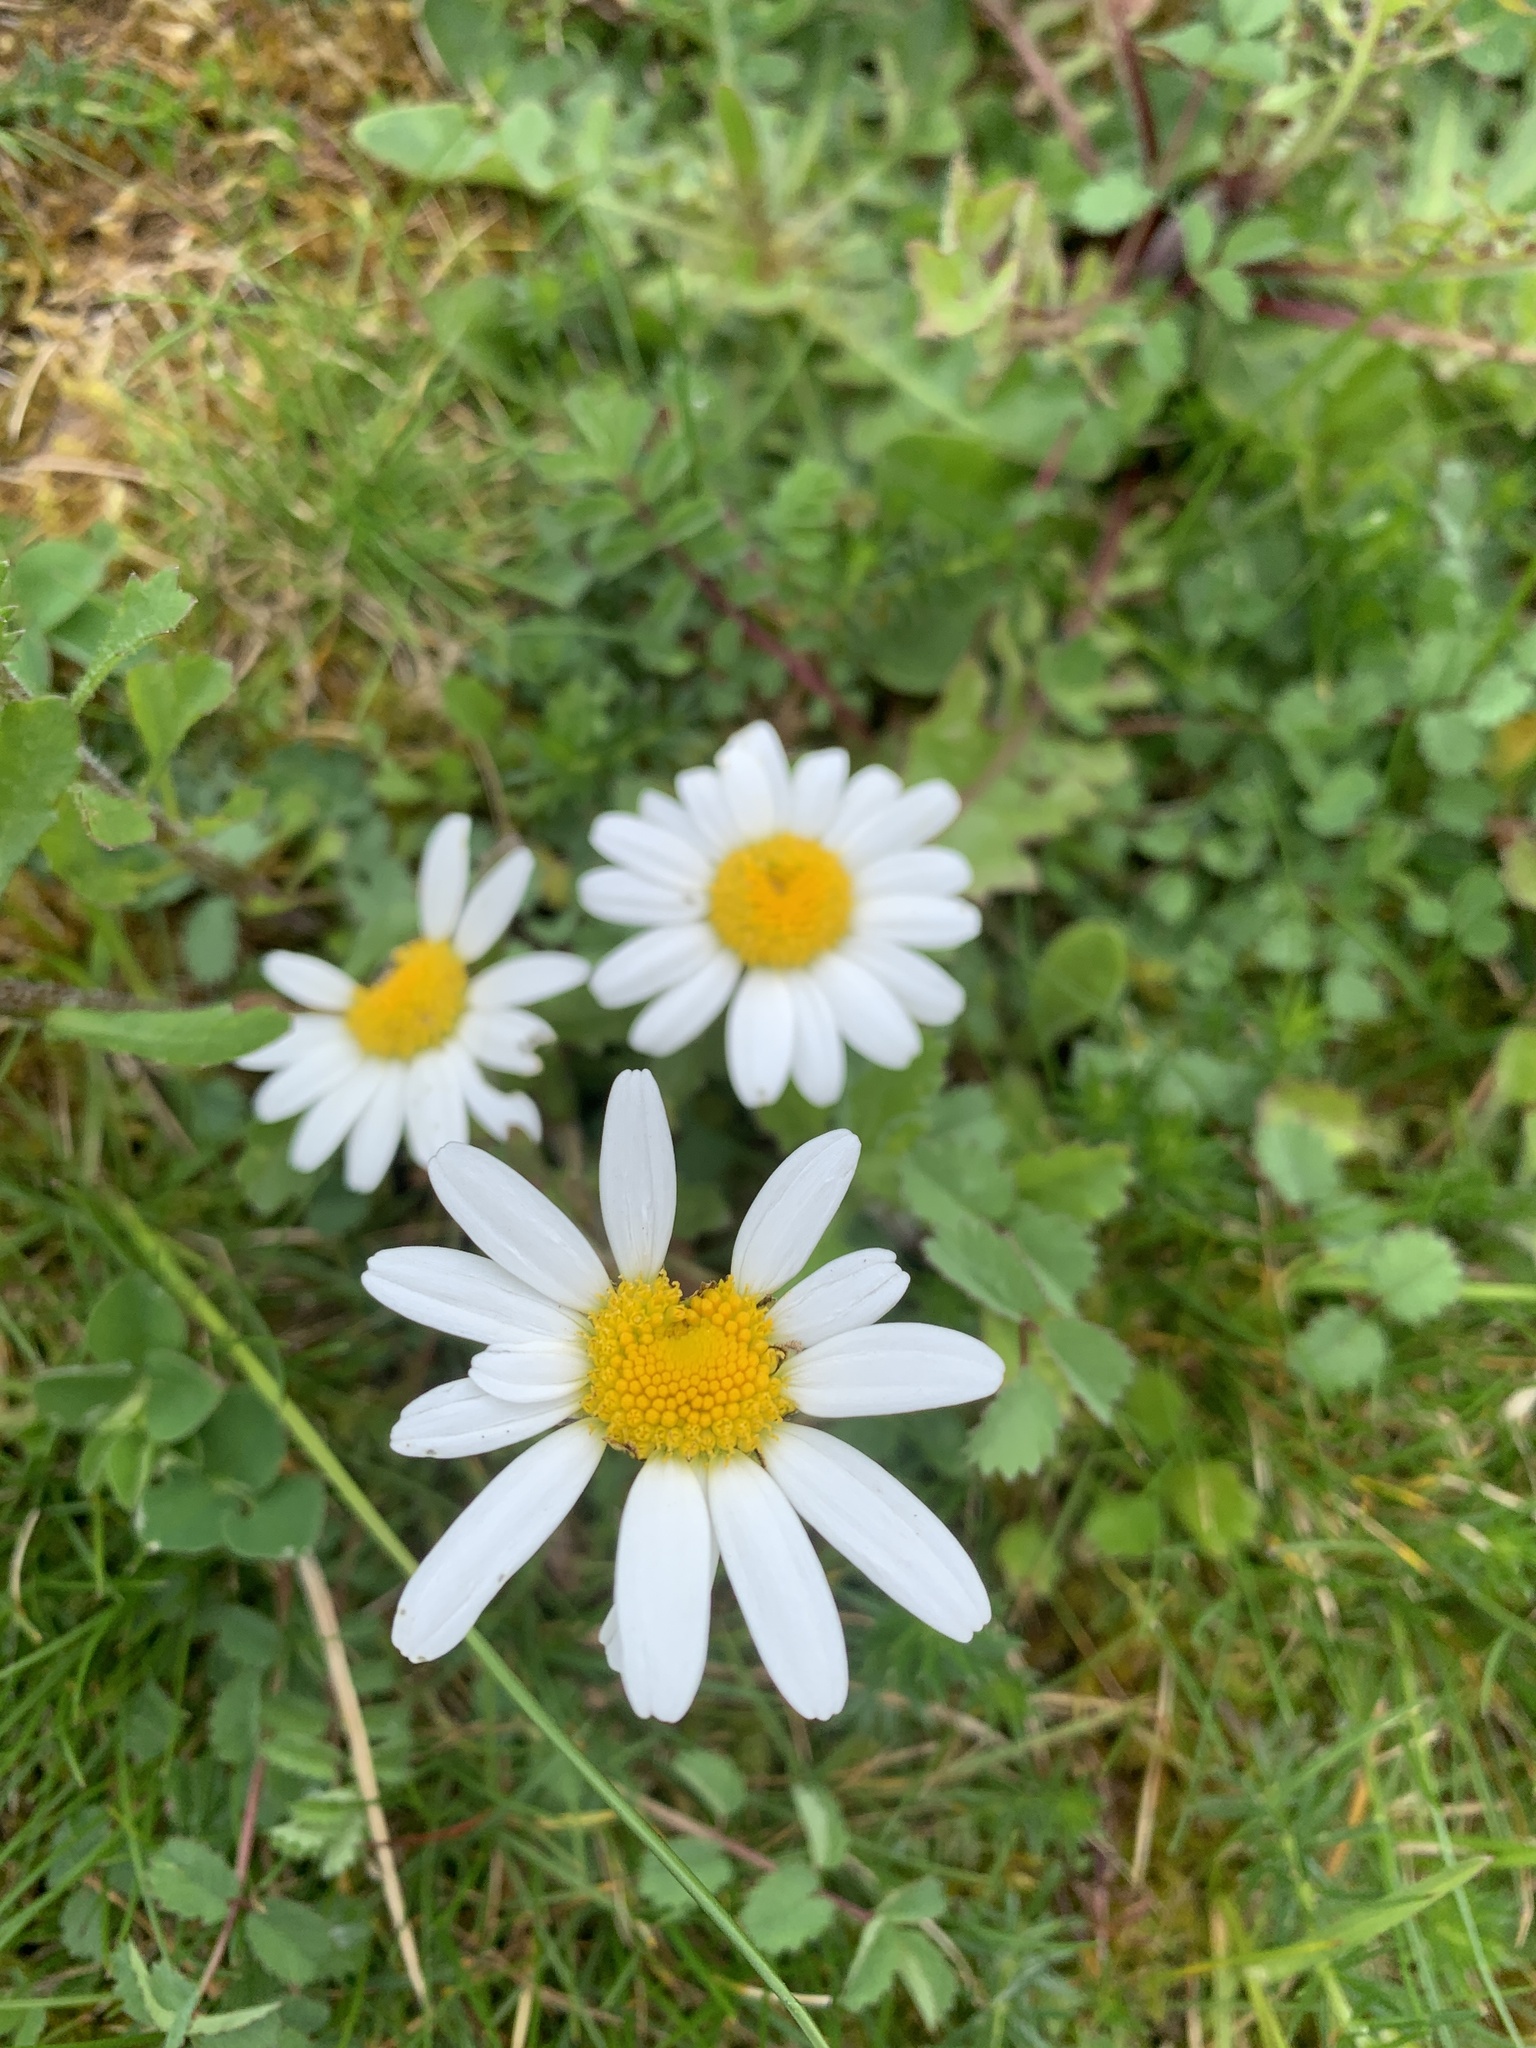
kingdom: Plantae
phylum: Tracheophyta
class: Magnoliopsida
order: Asterales
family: Asteraceae
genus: Leucanthemum
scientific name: Leucanthemum vulgare
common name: Oxeye daisy
